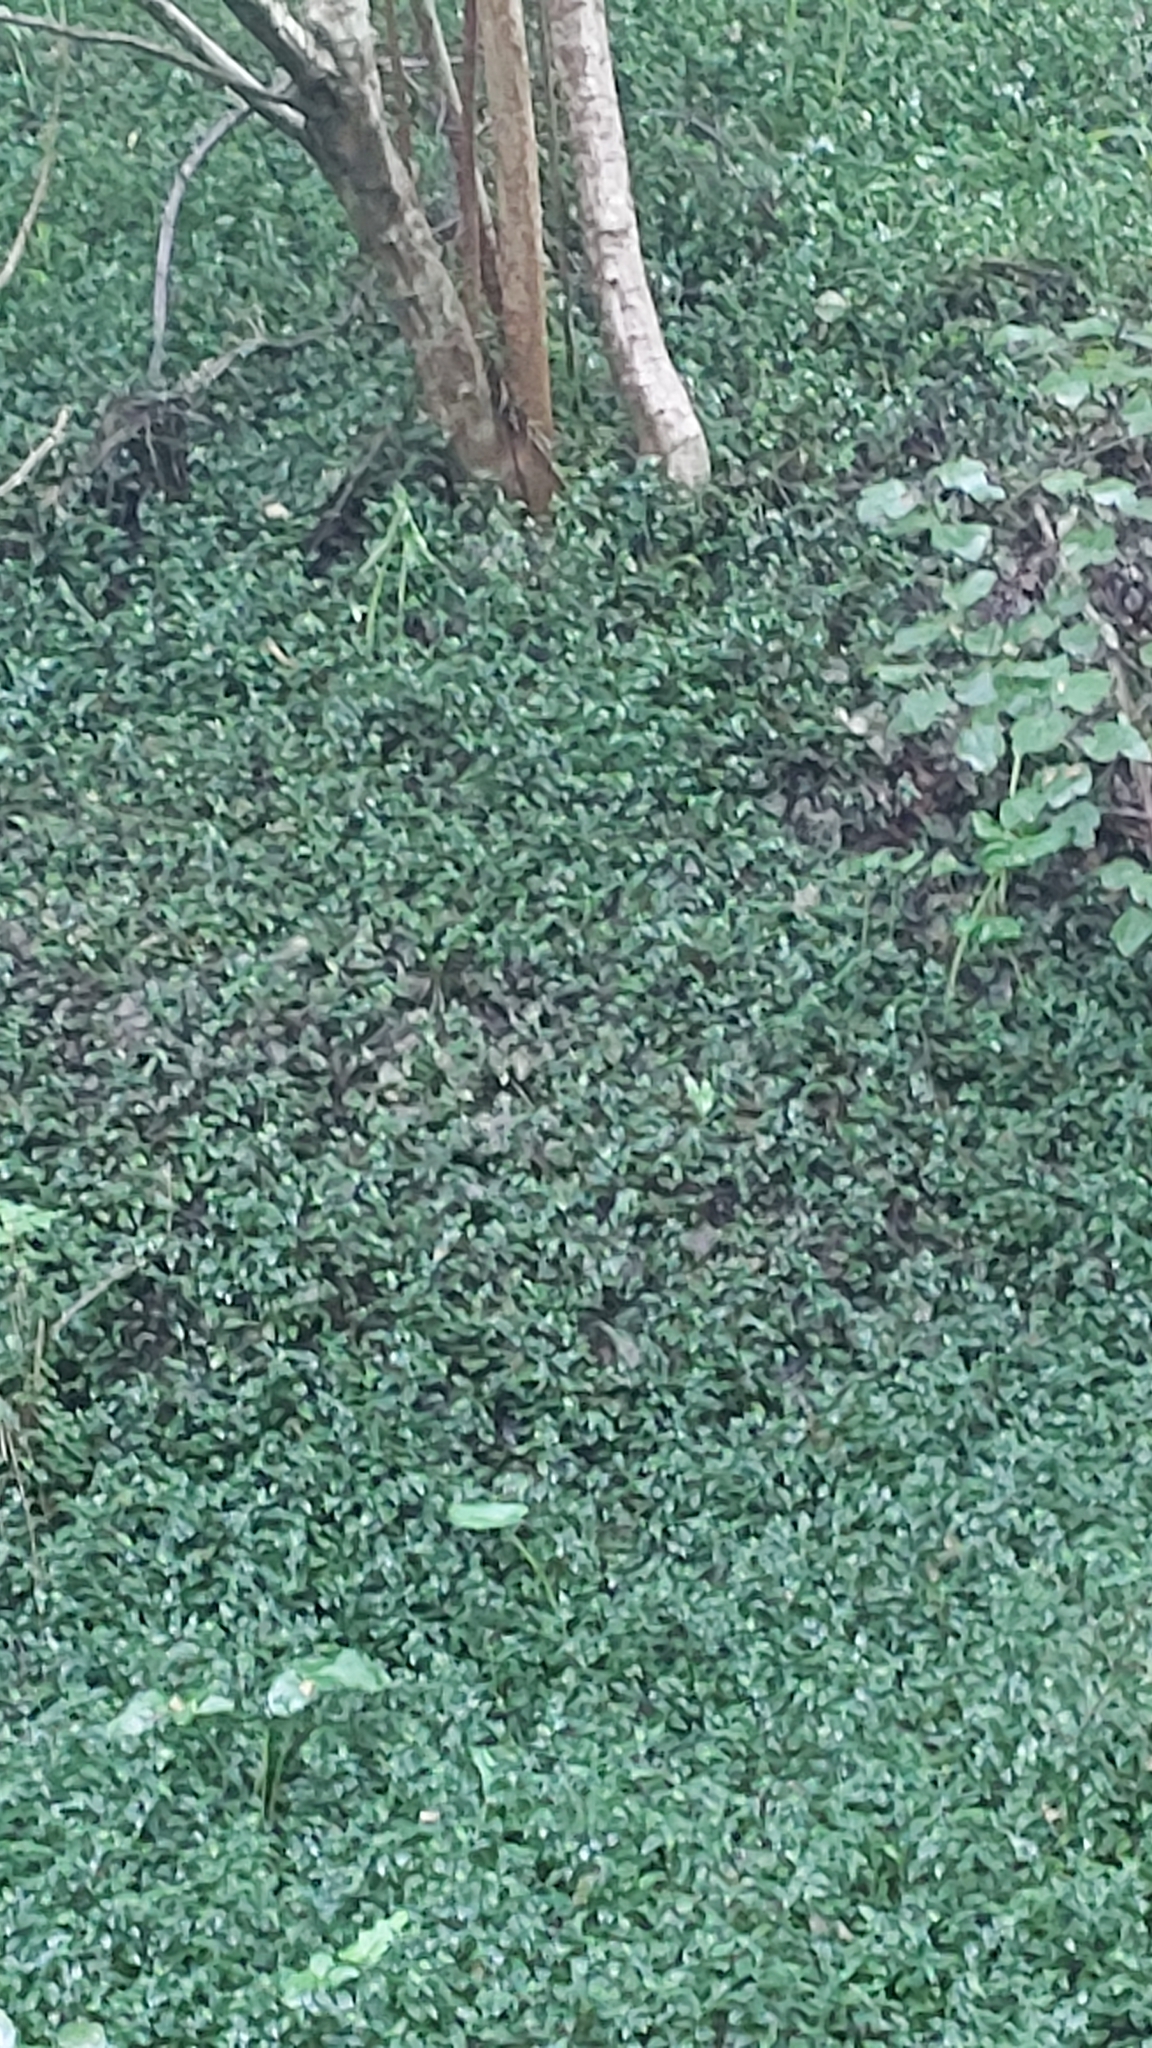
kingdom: Plantae
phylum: Tracheophyta
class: Liliopsida
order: Commelinales
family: Commelinaceae
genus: Tradescantia
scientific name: Tradescantia fluminensis
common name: Wandering-jew
